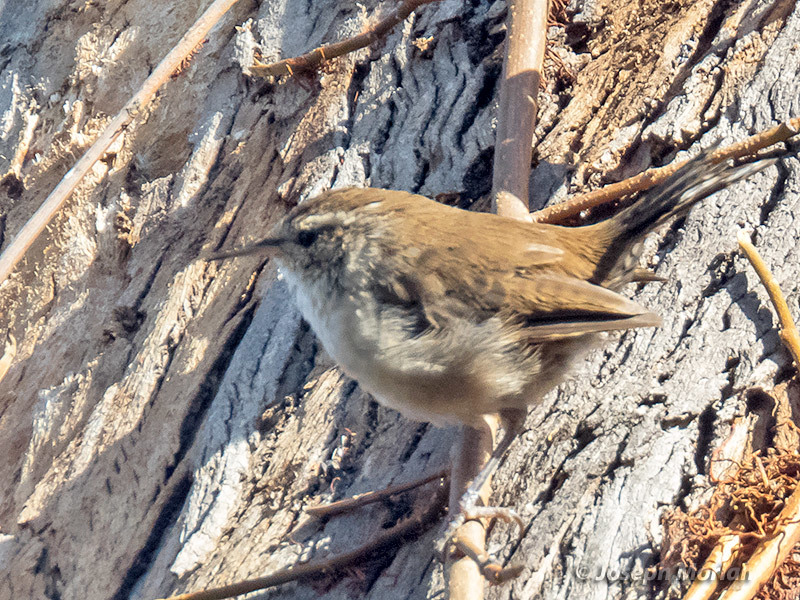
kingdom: Animalia
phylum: Chordata
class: Aves
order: Passeriformes
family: Troglodytidae
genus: Thryomanes
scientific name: Thryomanes bewickii
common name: Bewick's wren
